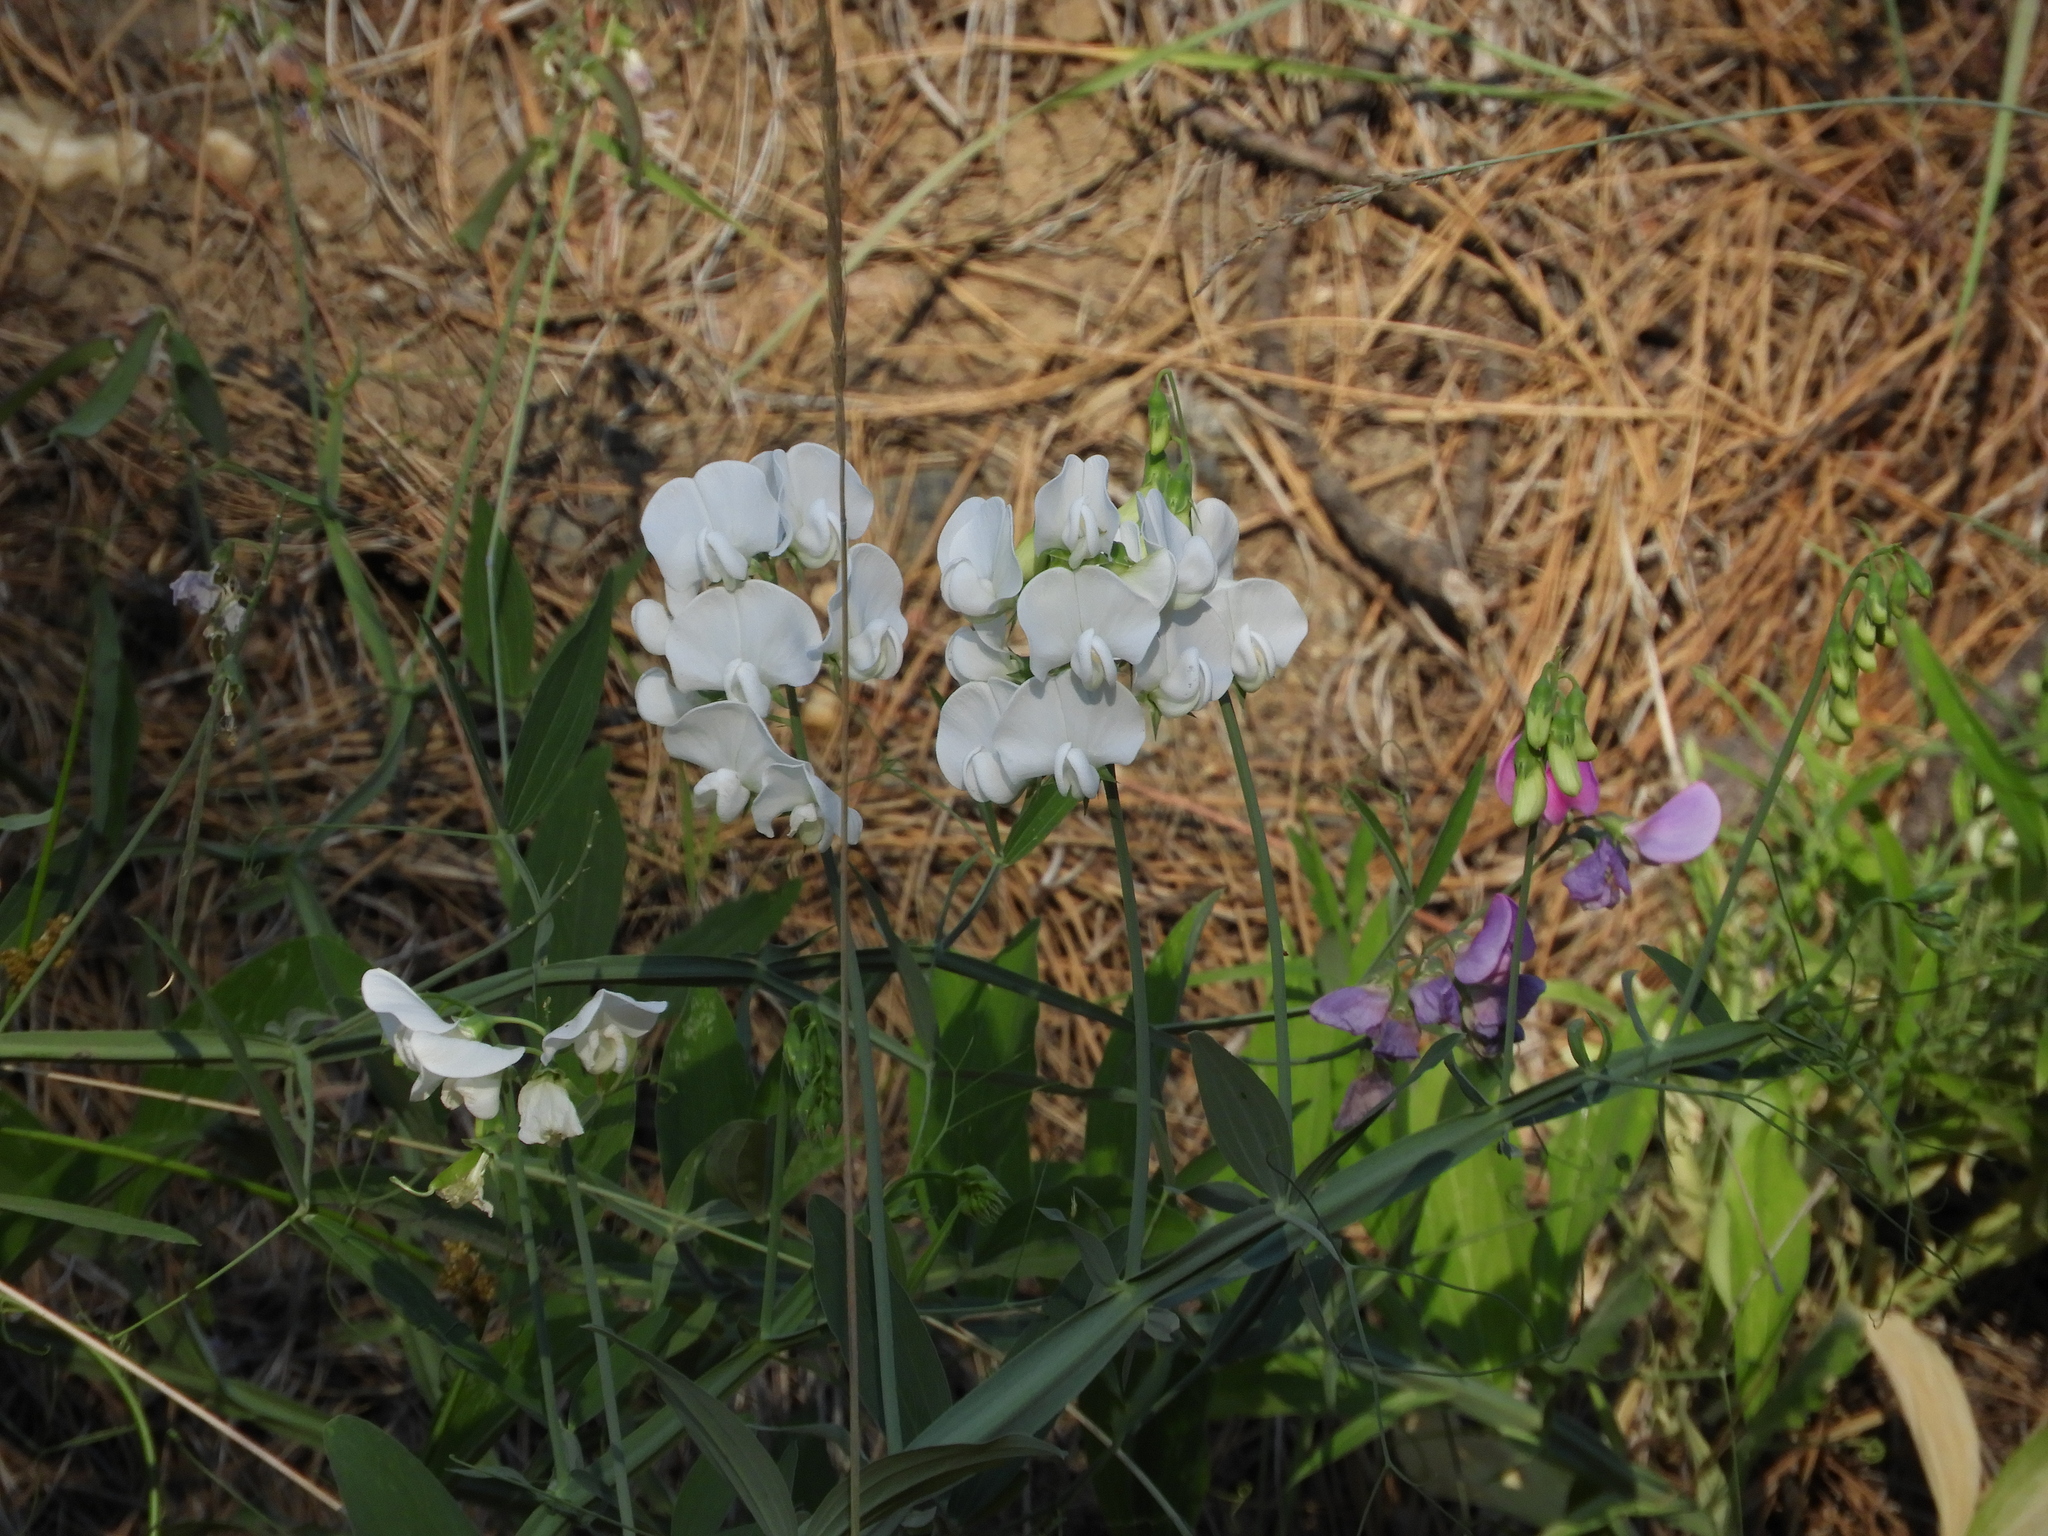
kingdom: Plantae
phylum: Tracheophyta
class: Magnoliopsida
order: Fabales
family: Fabaceae
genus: Lathyrus
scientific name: Lathyrus latifolius
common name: Perennial pea
